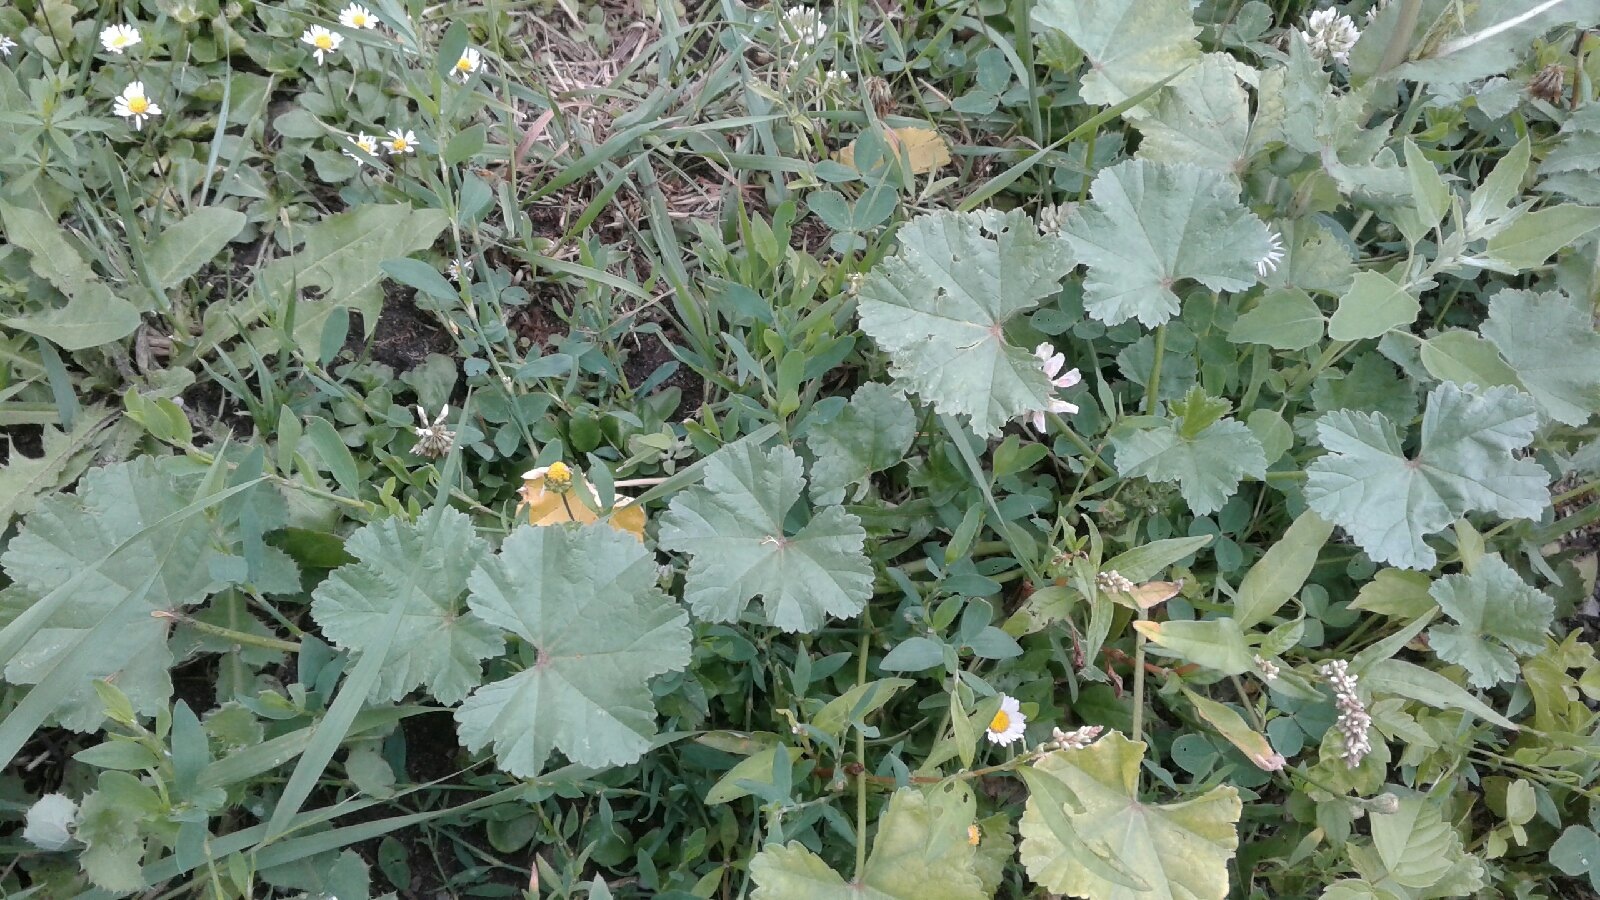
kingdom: Plantae
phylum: Tracheophyta
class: Magnoliopsida
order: Malvales
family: Malvaceae
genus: Malva
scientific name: Malva pusilla
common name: Small mallow
